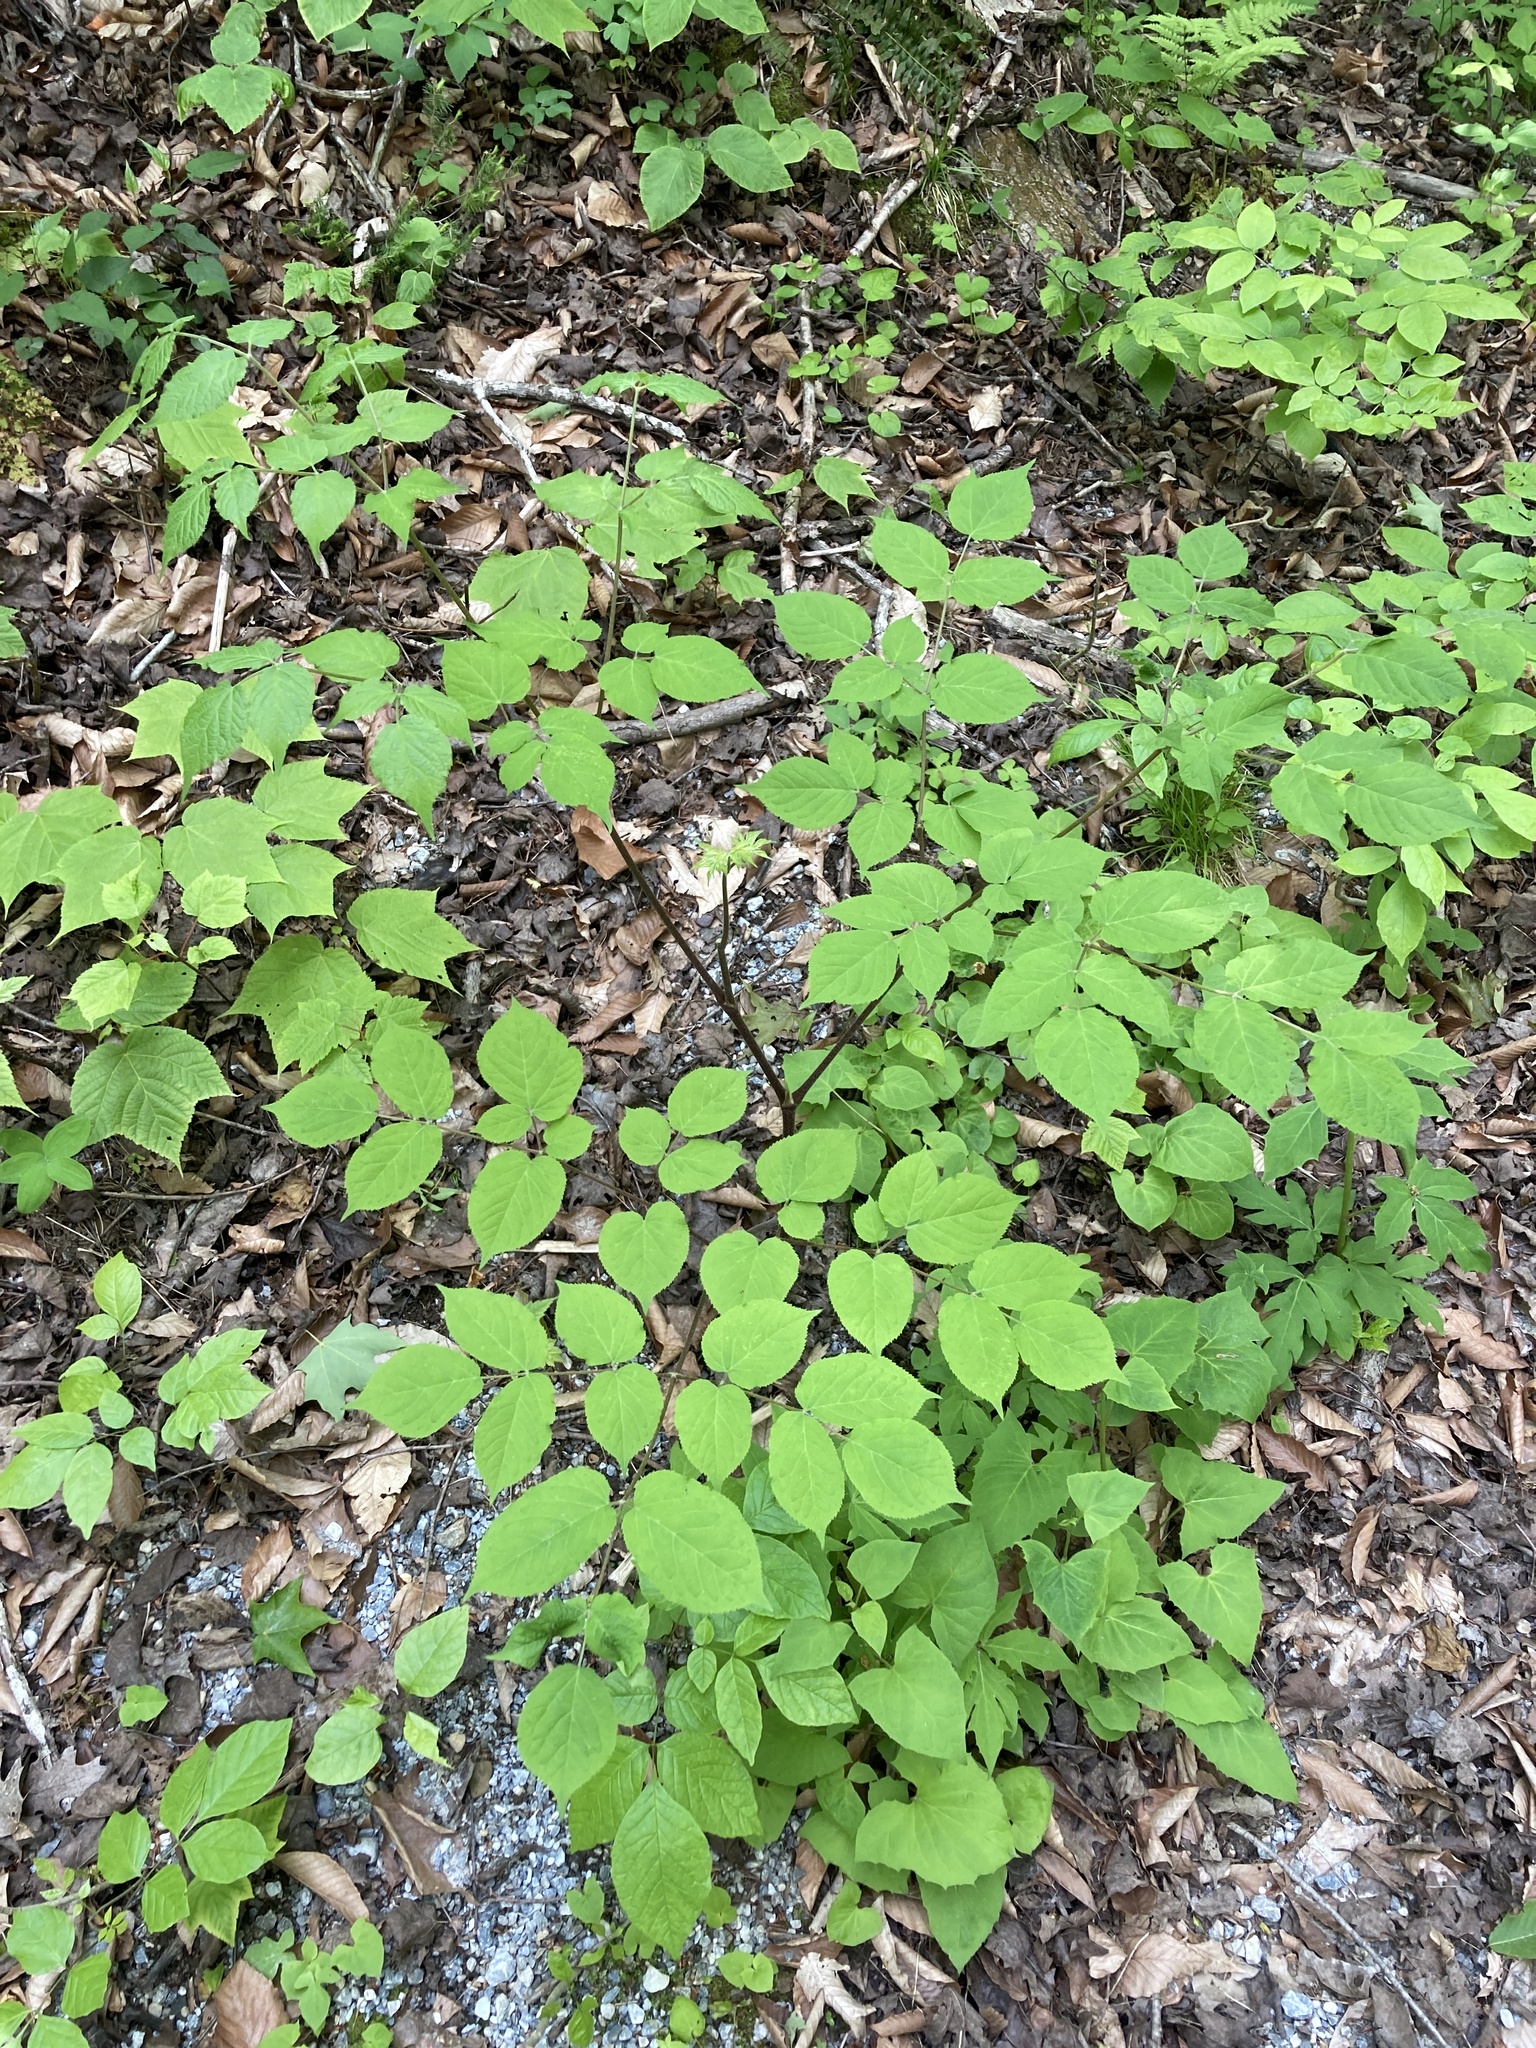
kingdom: Plantae
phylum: Tracheophyta
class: Magnoliopsida
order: Apiales
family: Araliaceae
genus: Aralia
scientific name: Aralia racemosa
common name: American-spikenard
